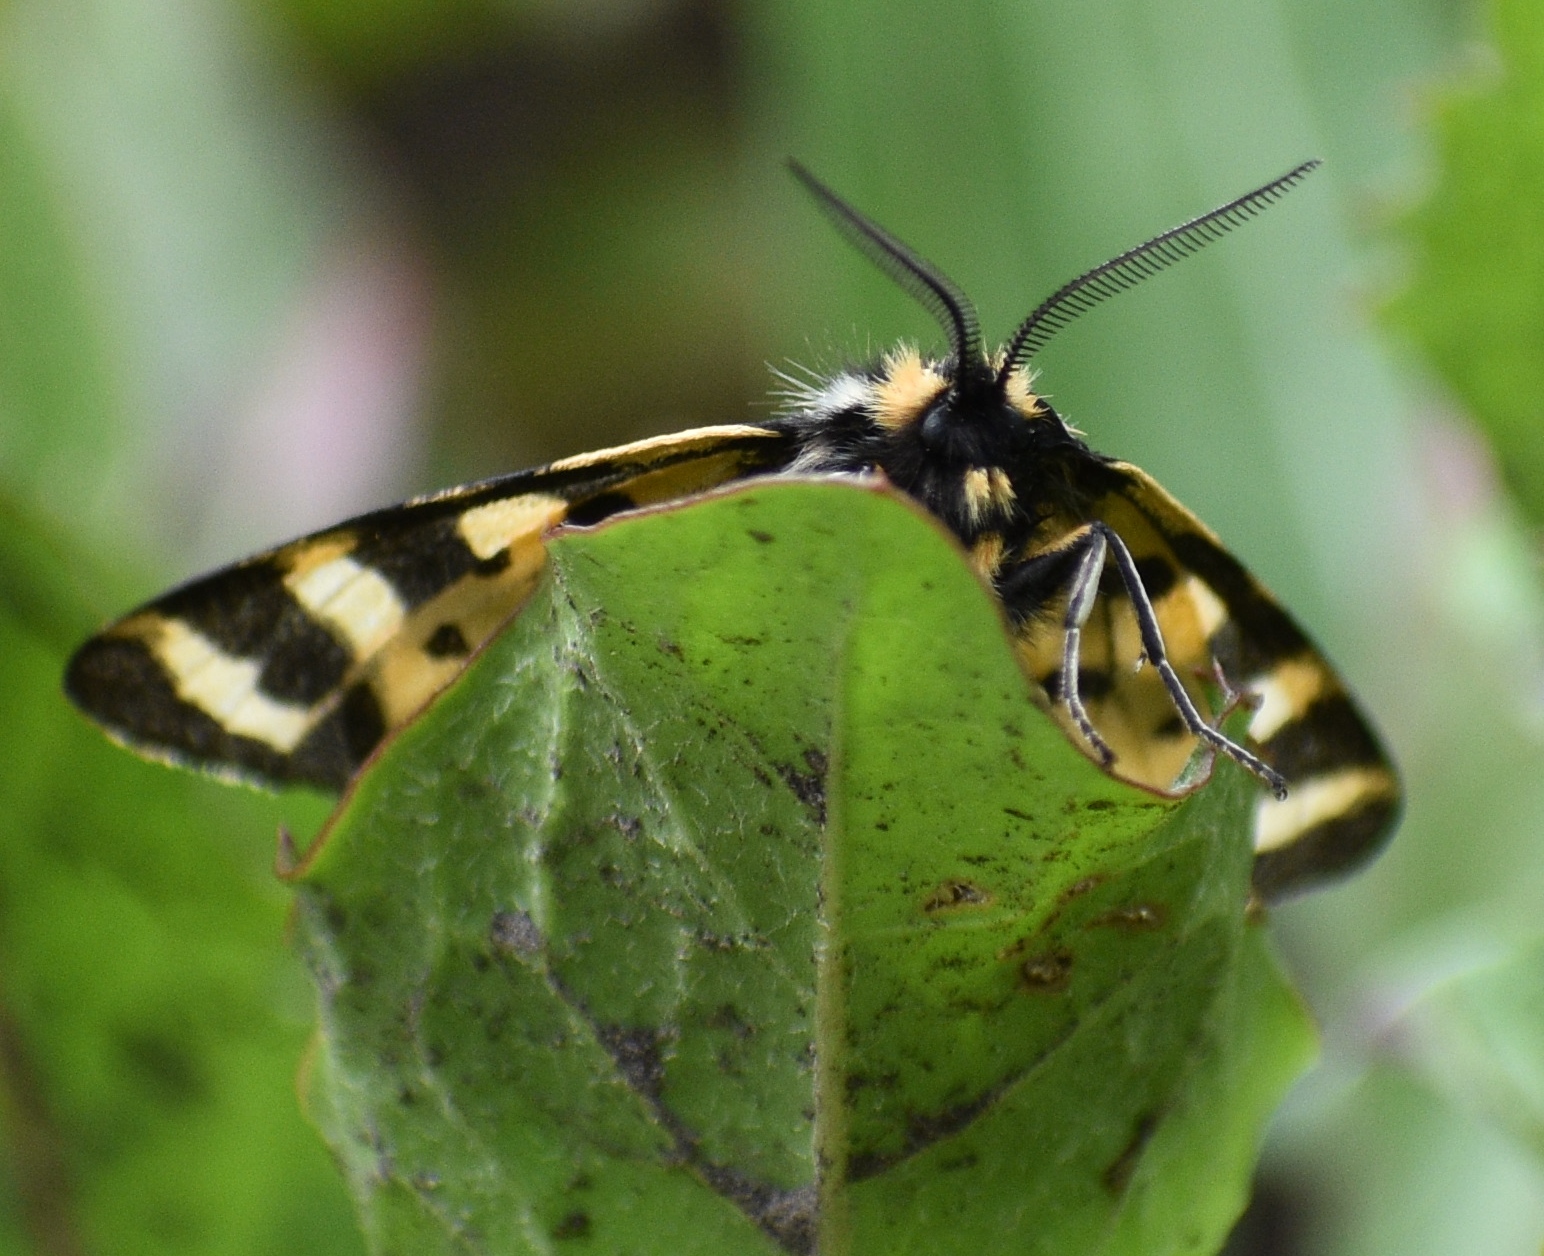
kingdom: Animalia
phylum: Arthropoda
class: Insecta
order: Lepidoptera
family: Erebidae
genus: Parasemia
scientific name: Parasemia plantaginis
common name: Wood tiger
